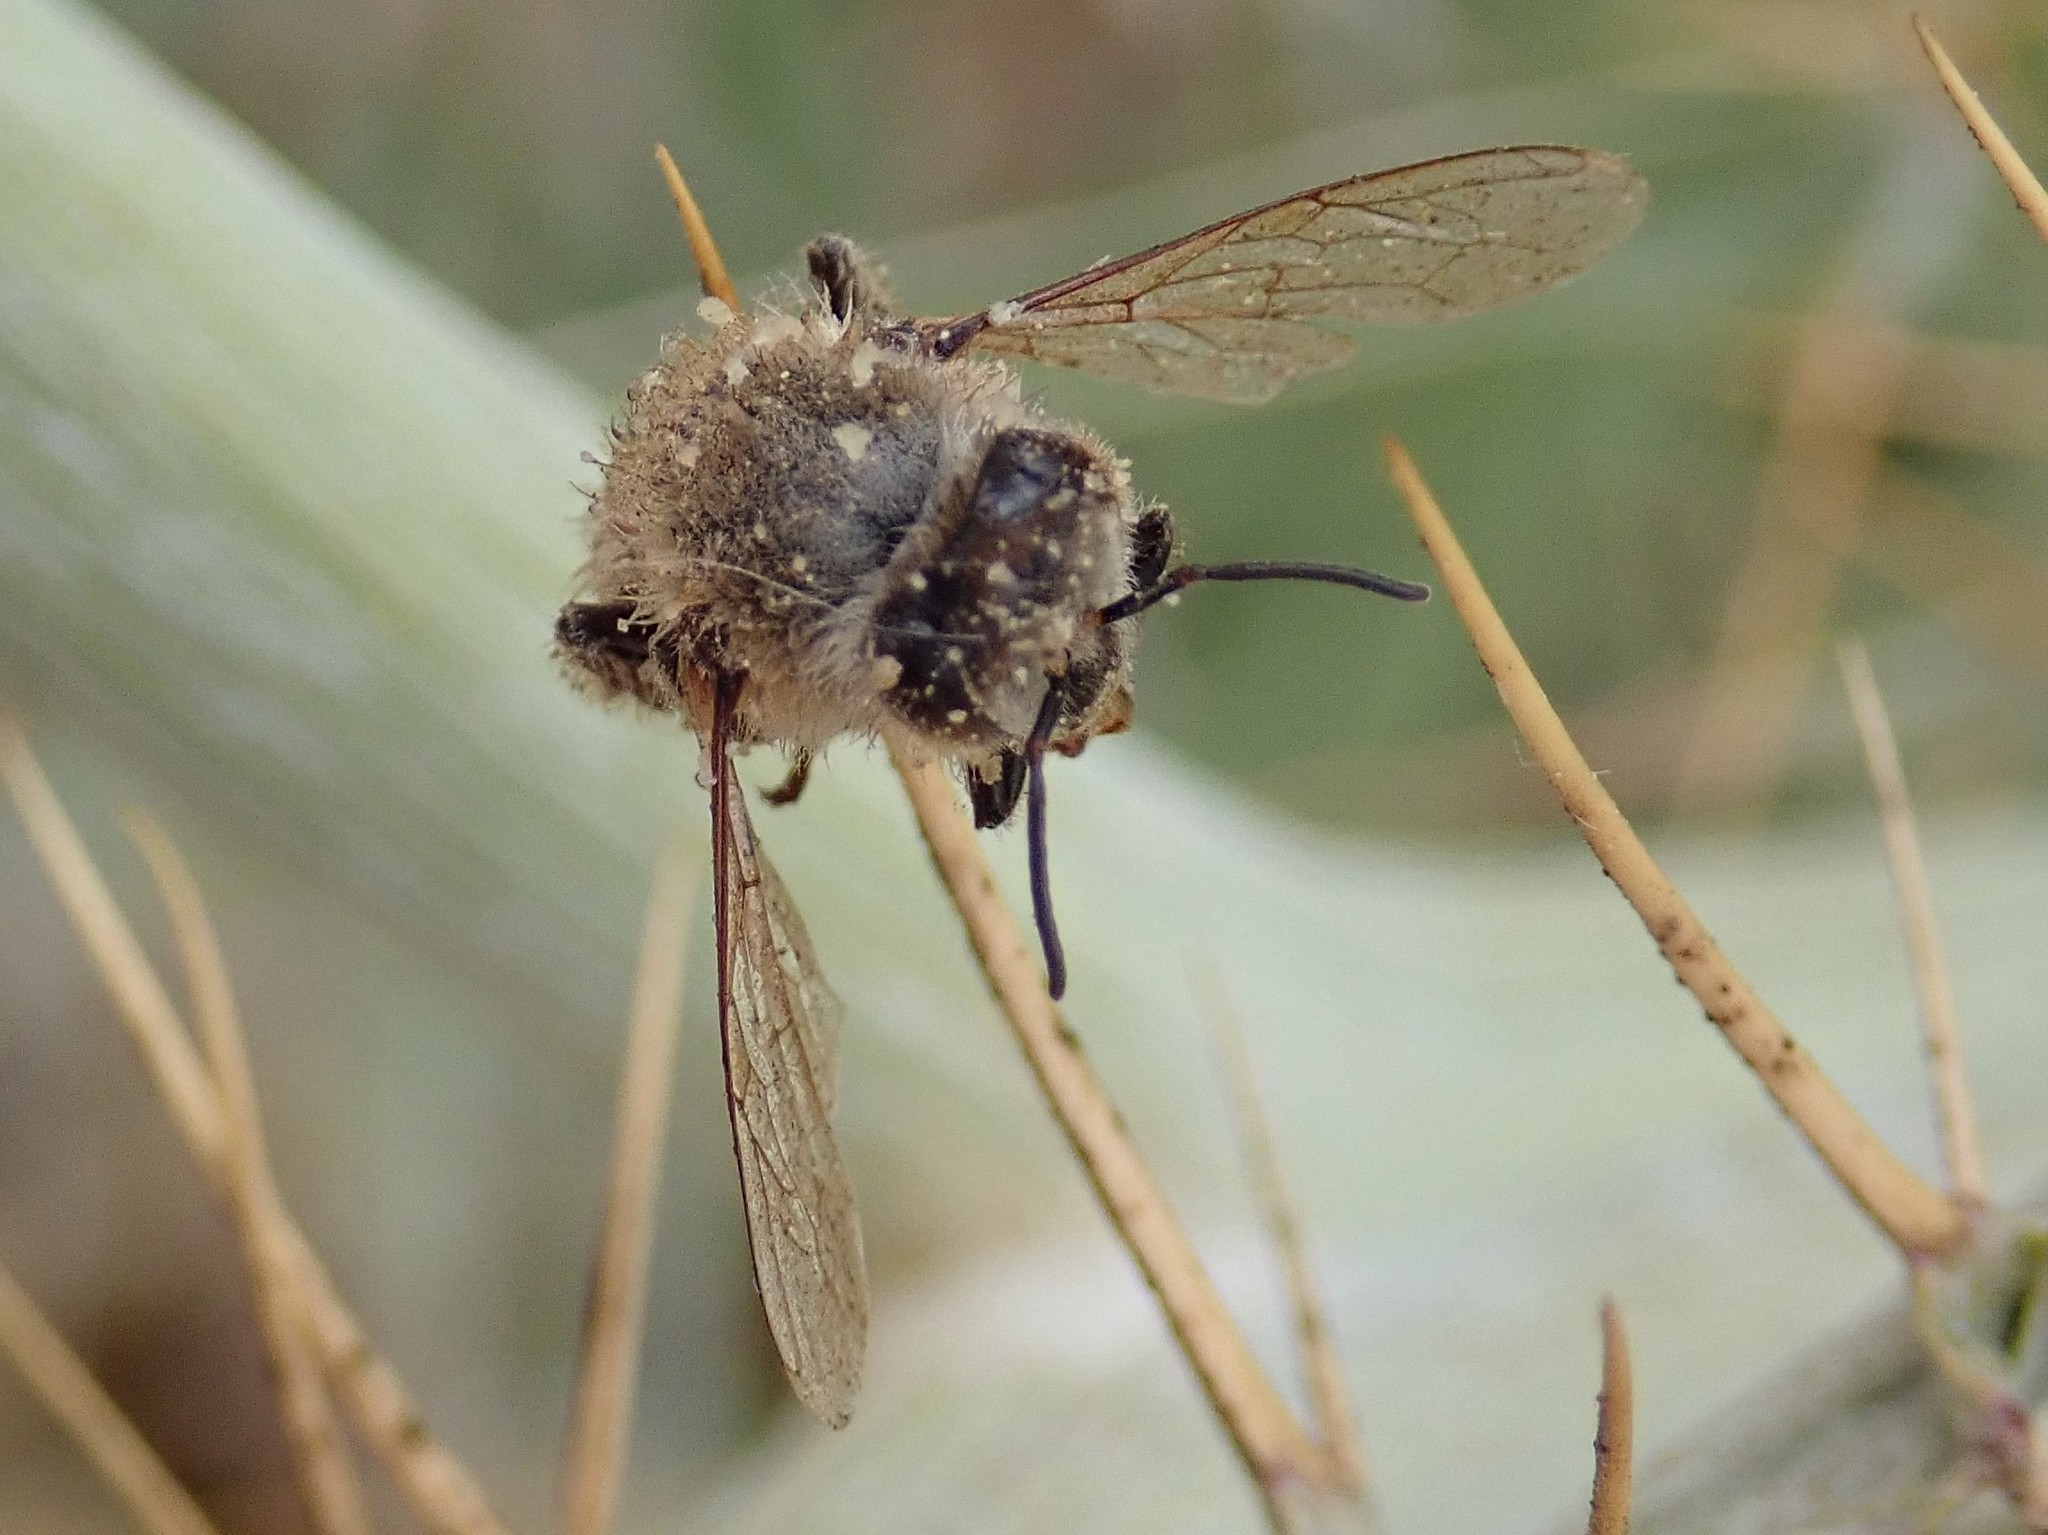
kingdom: Animalia
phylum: Arthropoda
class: Insecta
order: Hymenoptera
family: Apidae
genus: Apis
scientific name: Apis mellifera
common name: Honey bee
